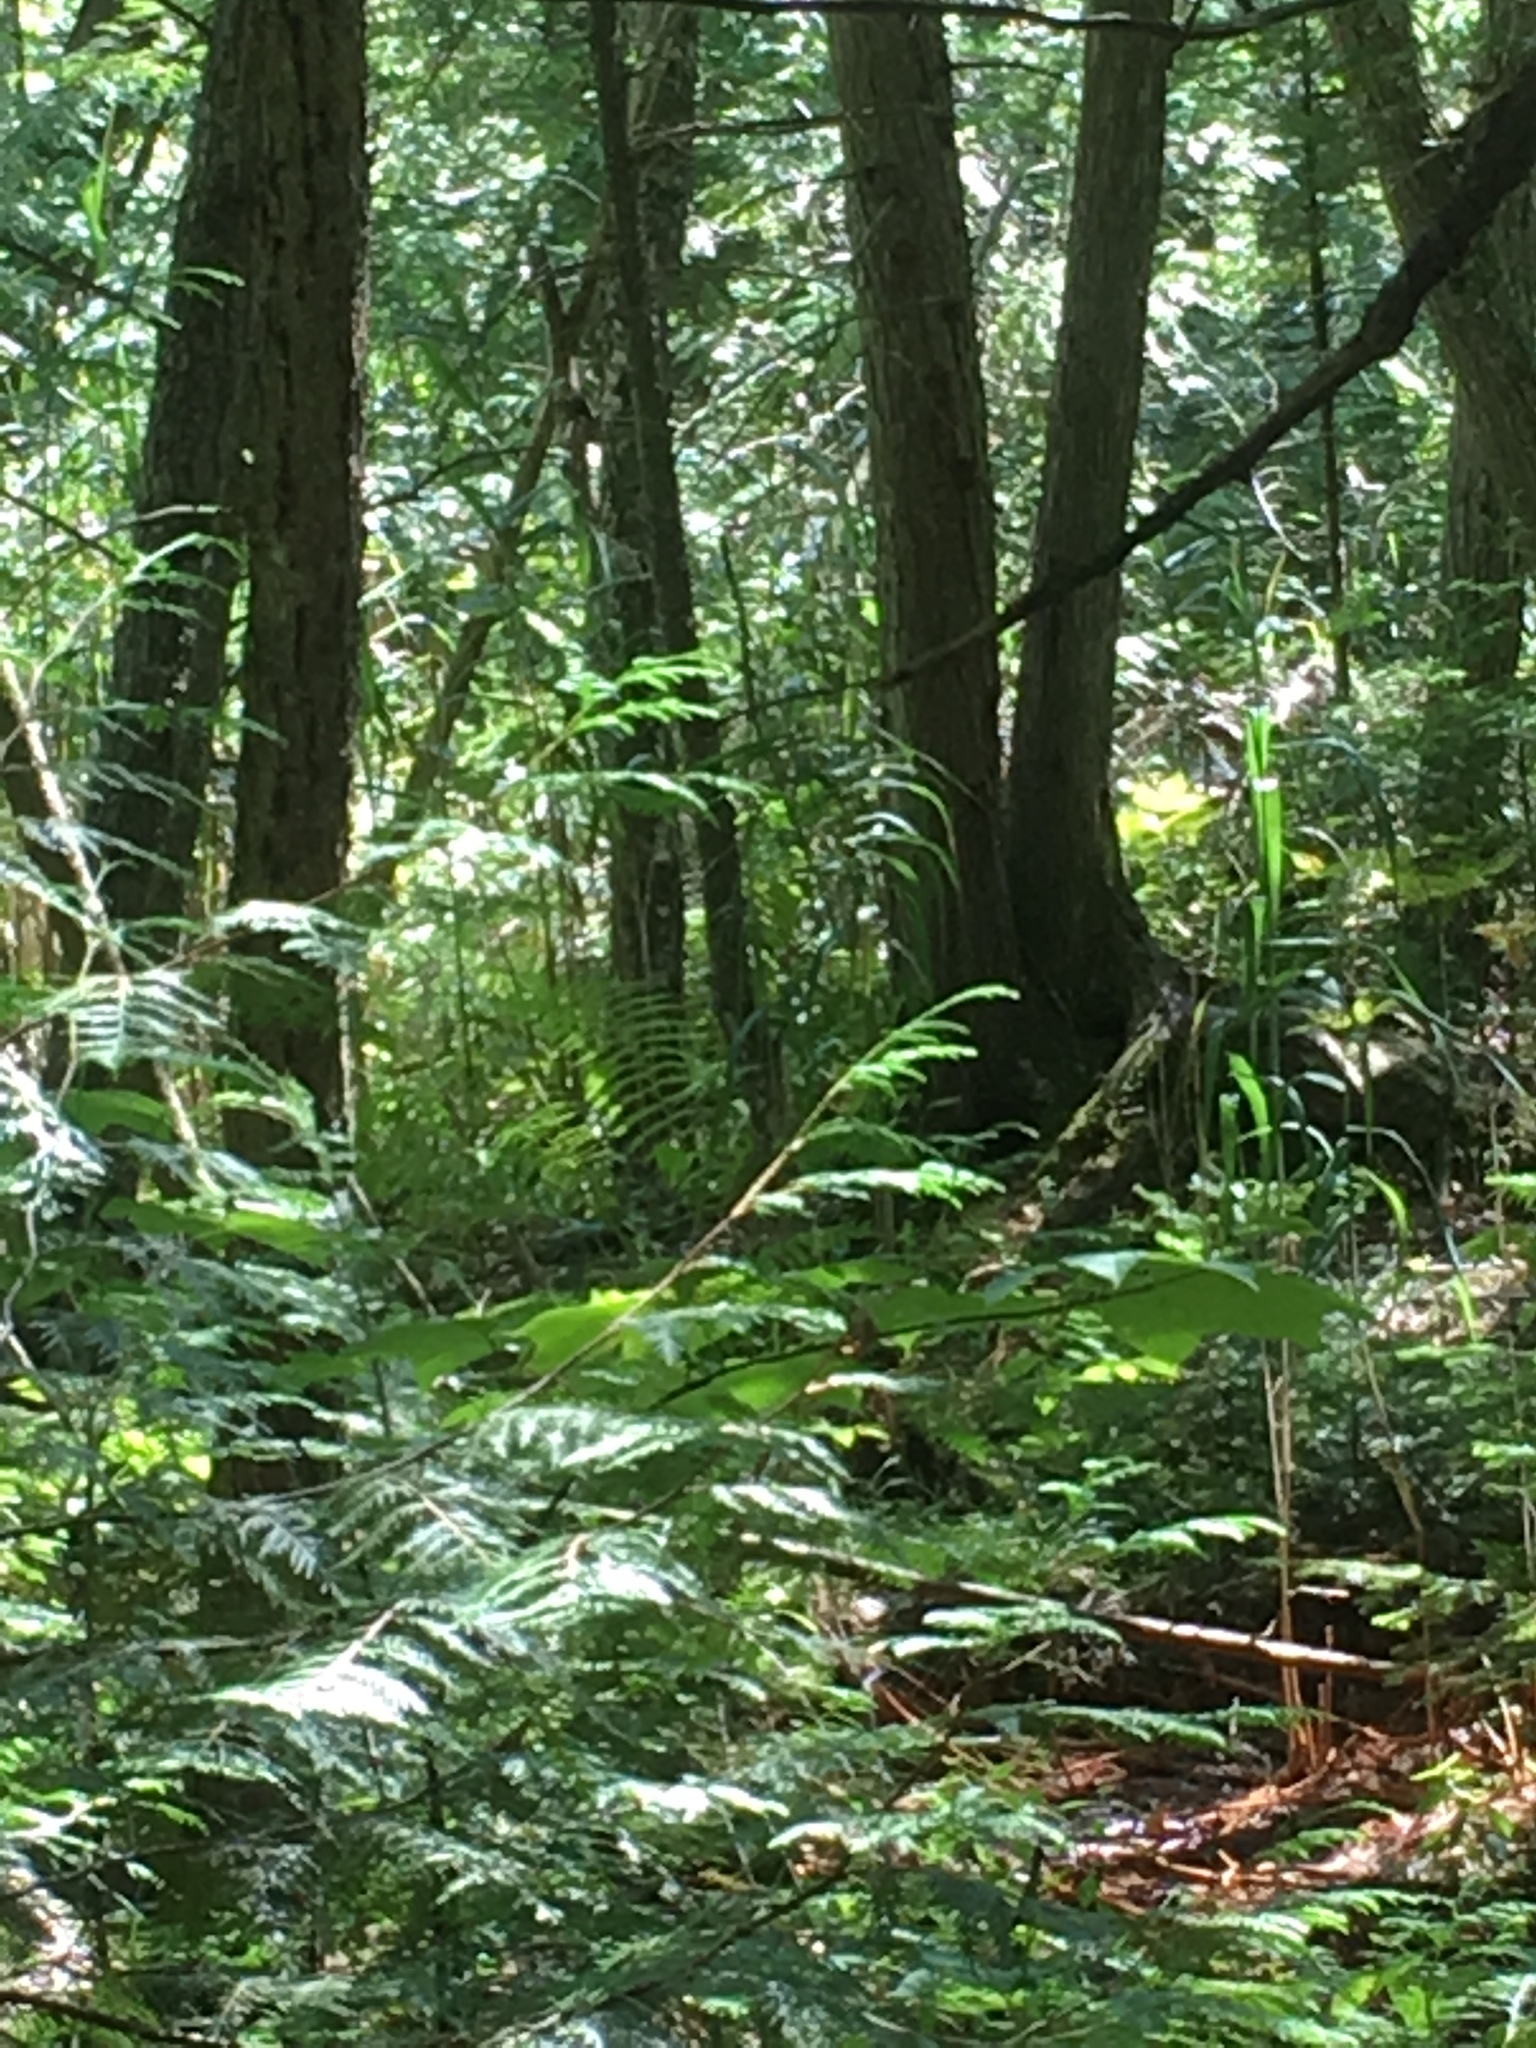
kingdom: Plantae
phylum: Tracheophyta
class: Liliopsida
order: Poales
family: Poaceae
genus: Phragmites
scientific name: Phragmites australis
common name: Common reed
